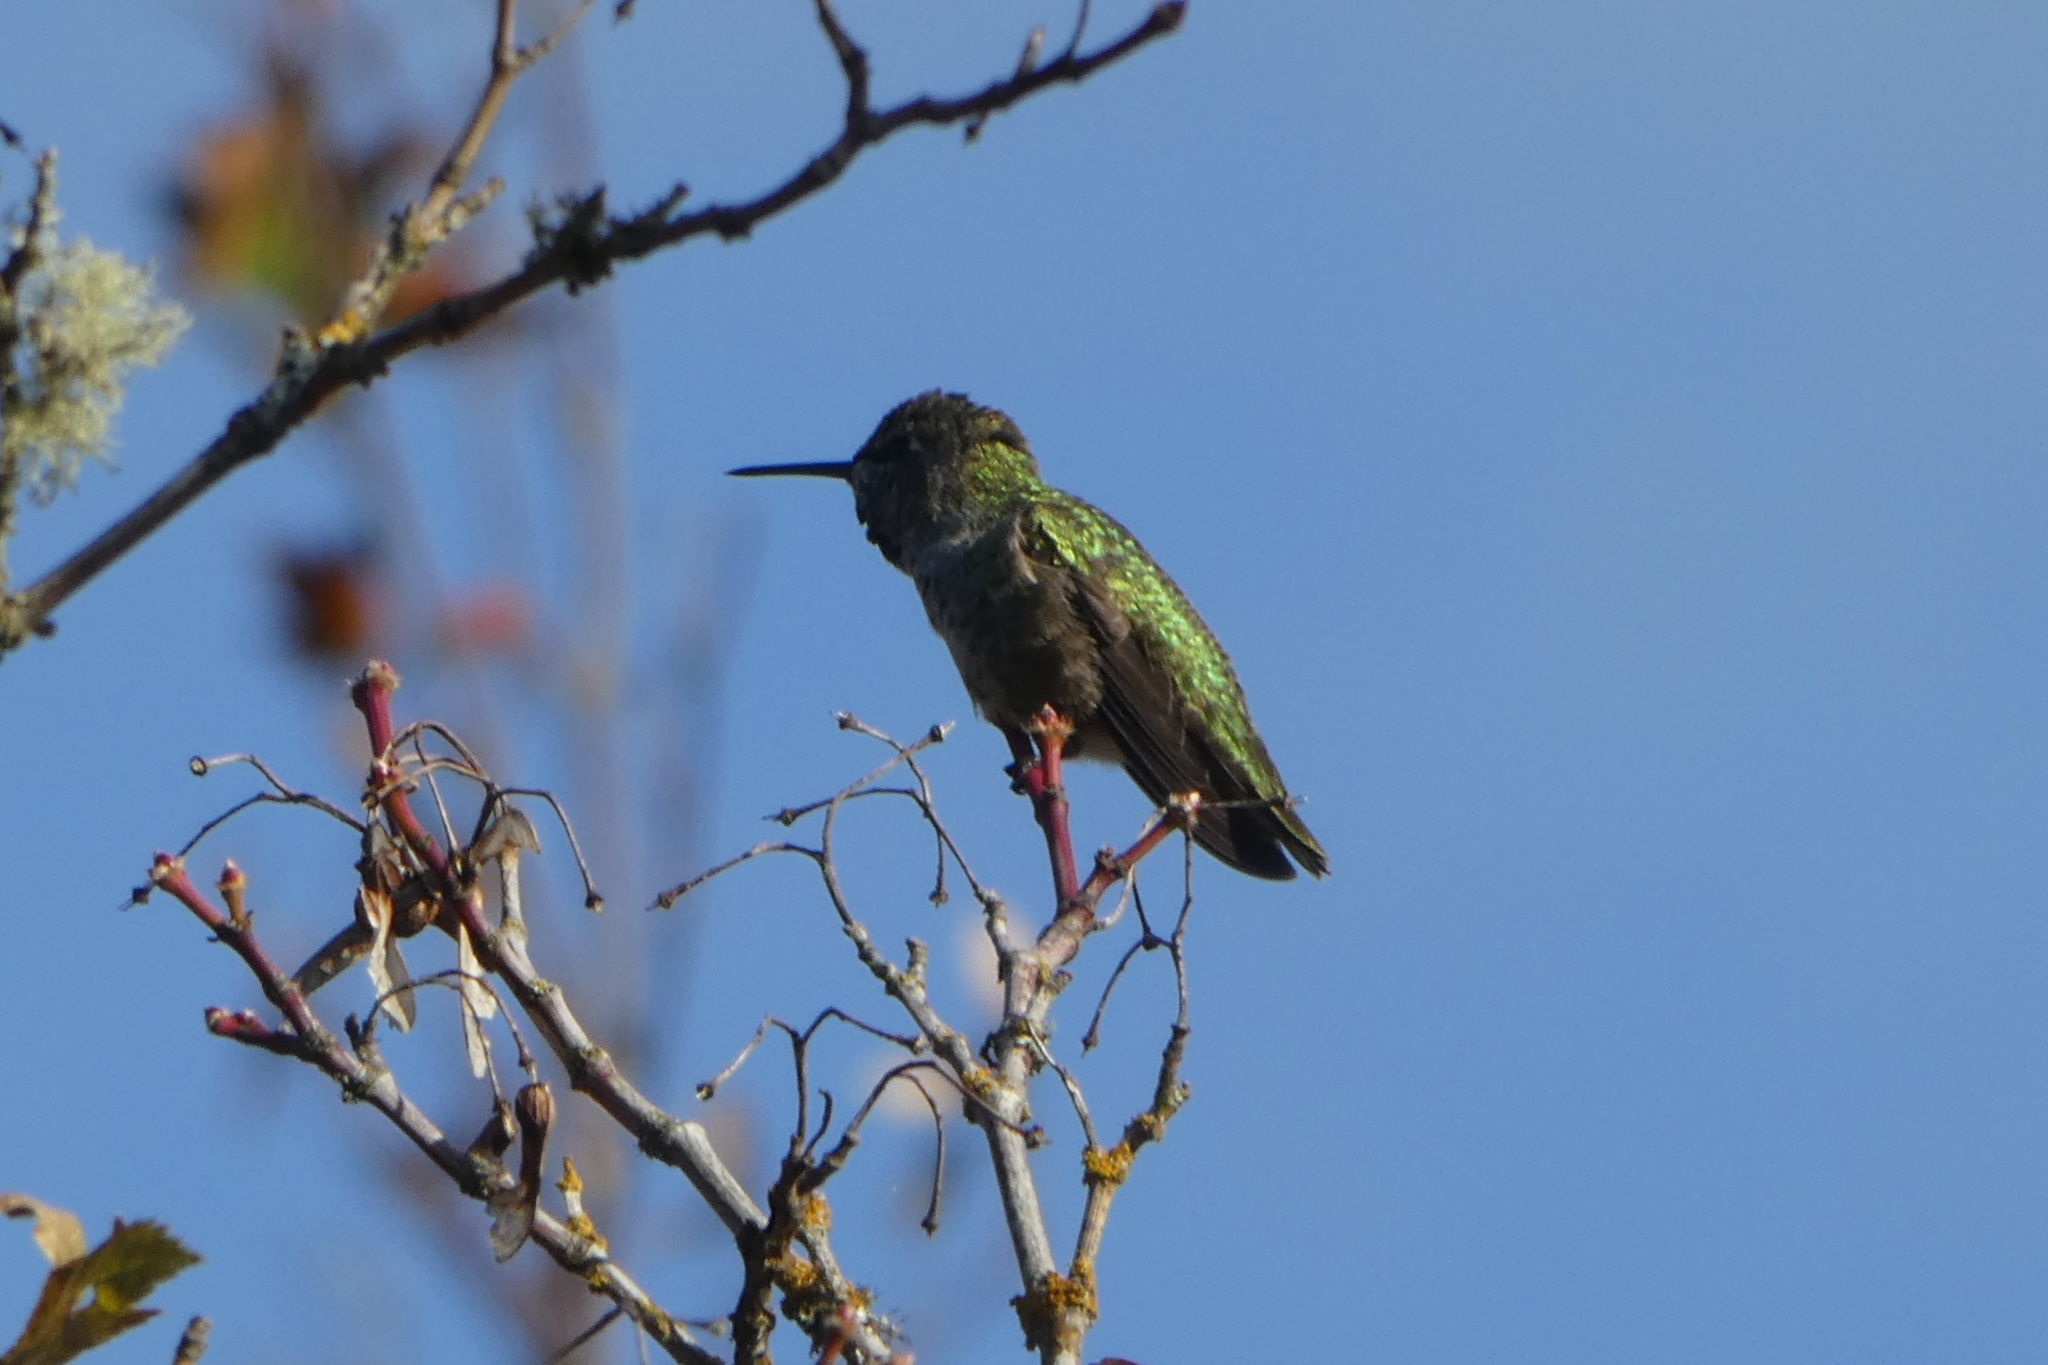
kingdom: Animalia
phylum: Chordata
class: Aves
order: Apodiformes
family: Trochilidae
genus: Calypte
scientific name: Calypte anna
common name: Anna's hummingbird
